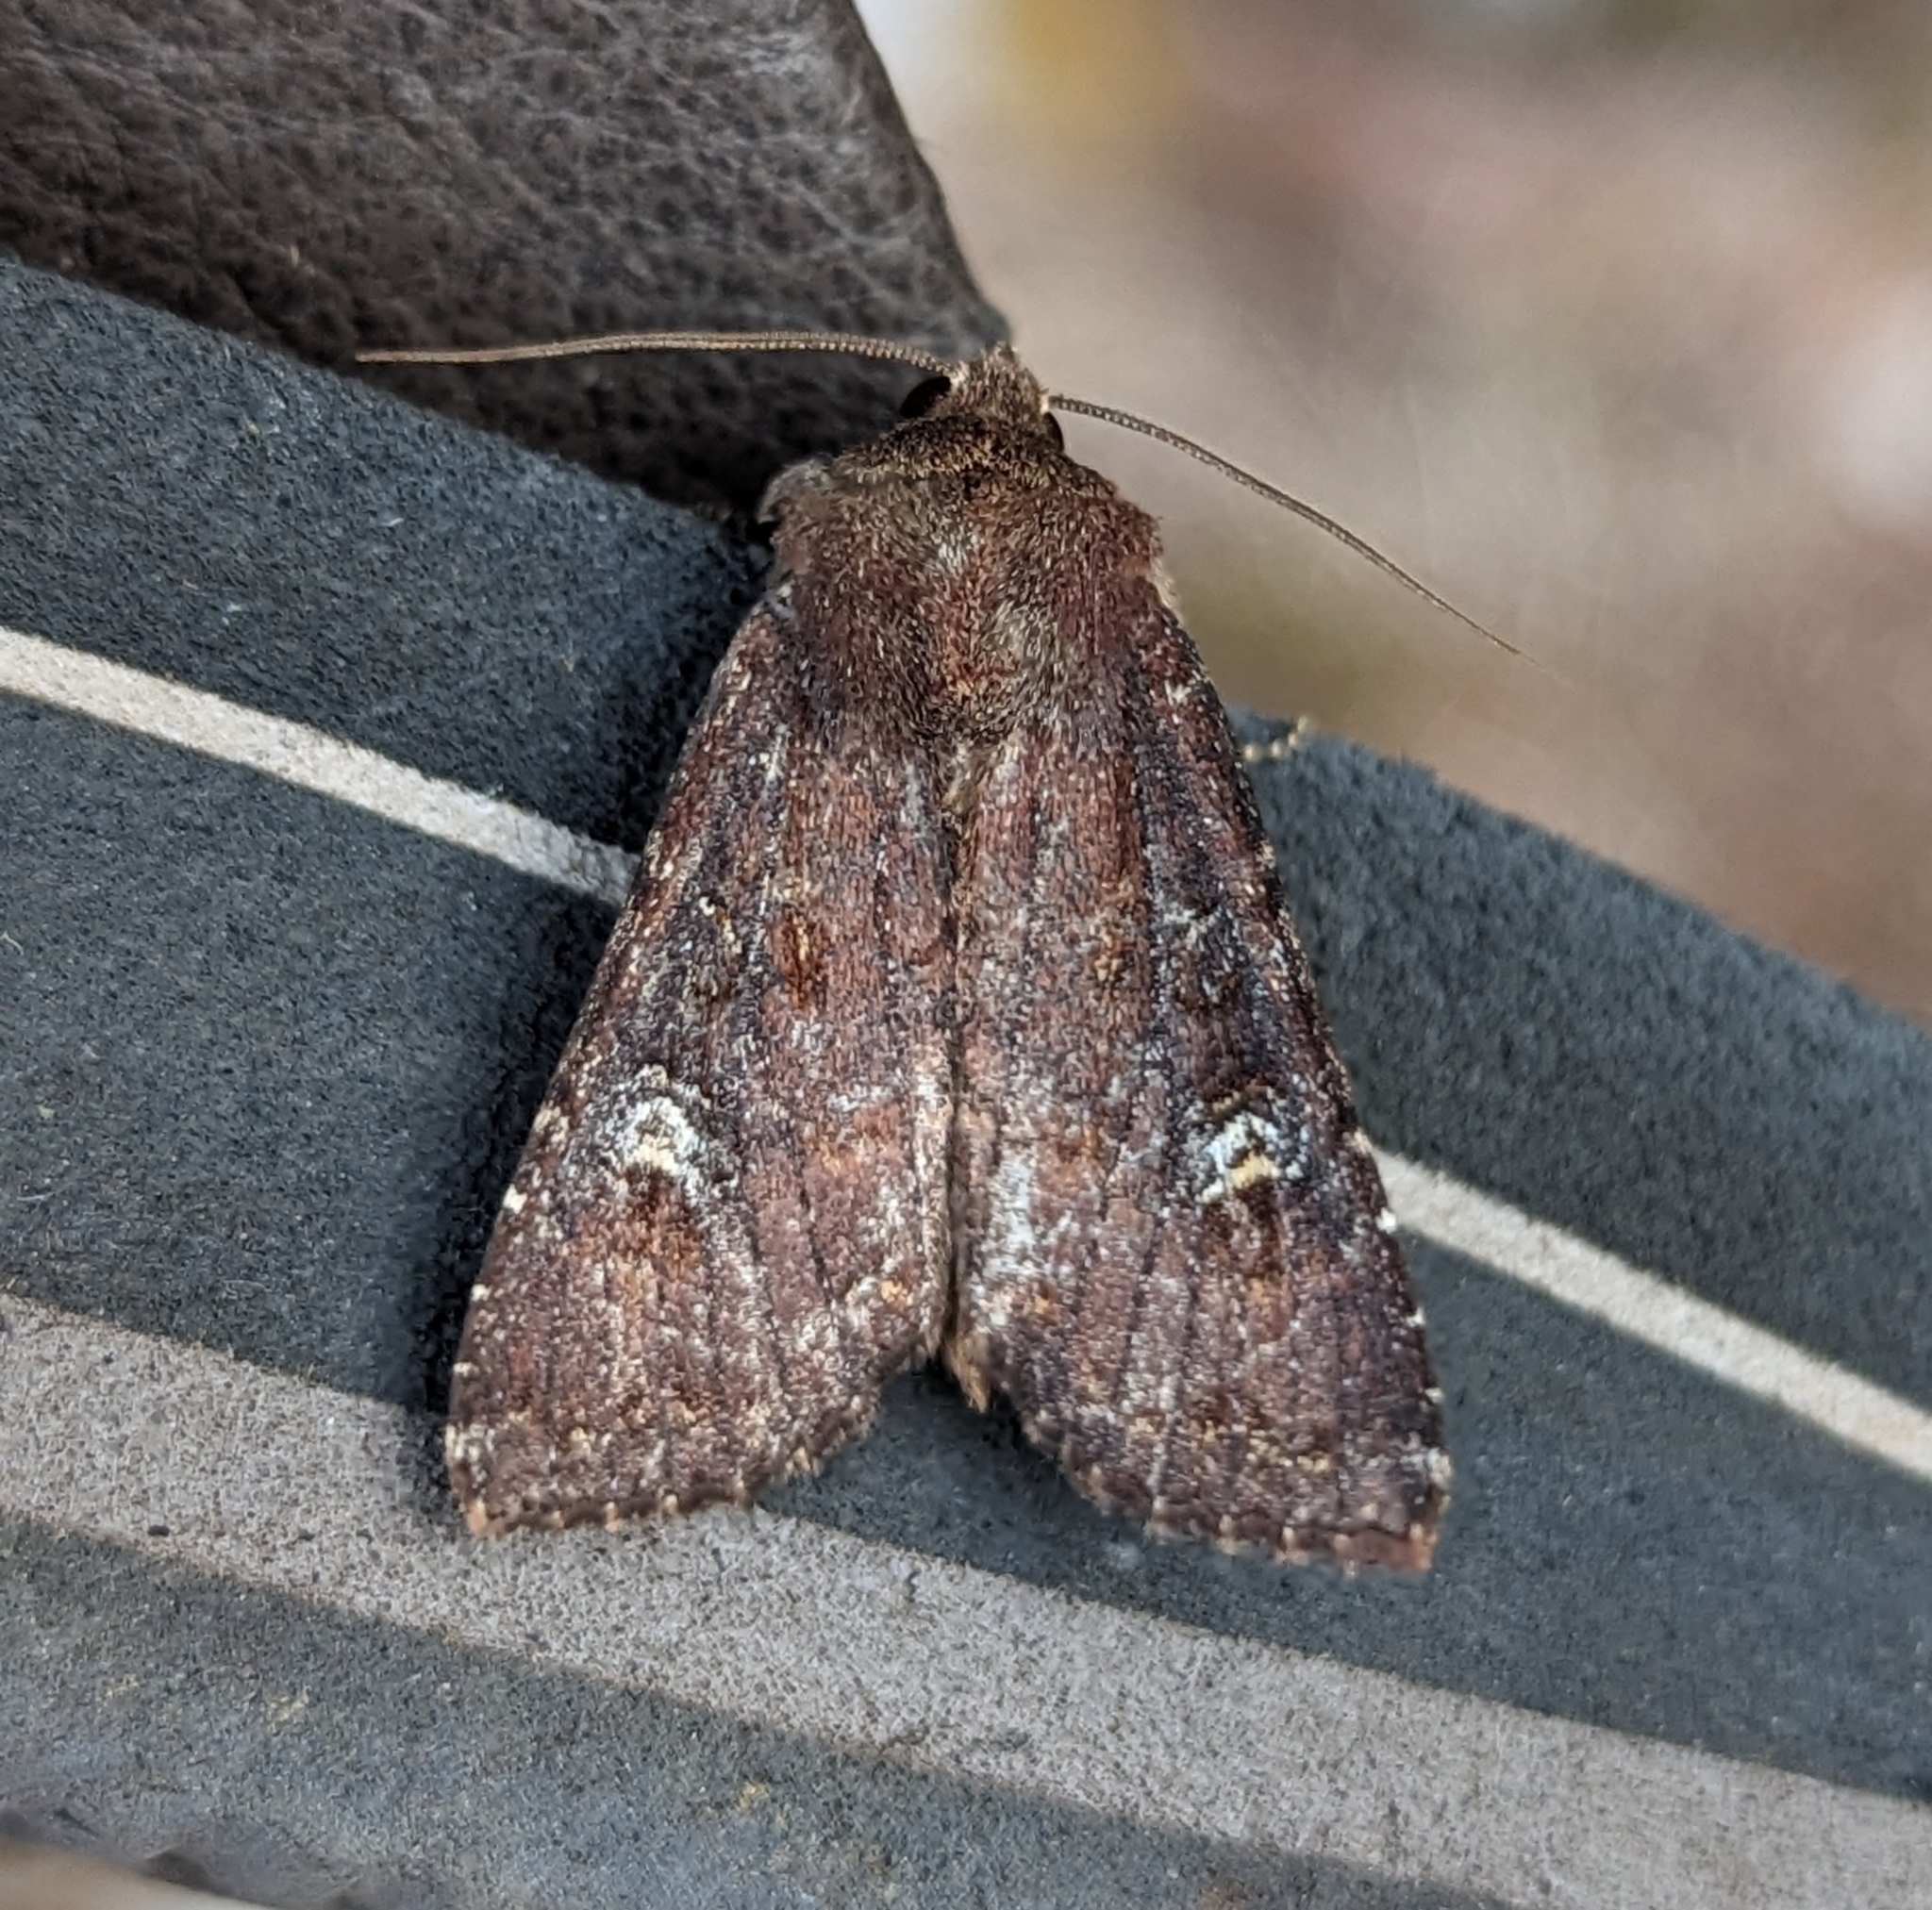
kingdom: Animalia
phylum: Arthropoda
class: Insecta
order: Lepidoptera
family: Noctuidae
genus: Apamea
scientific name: Apamea cogitata
